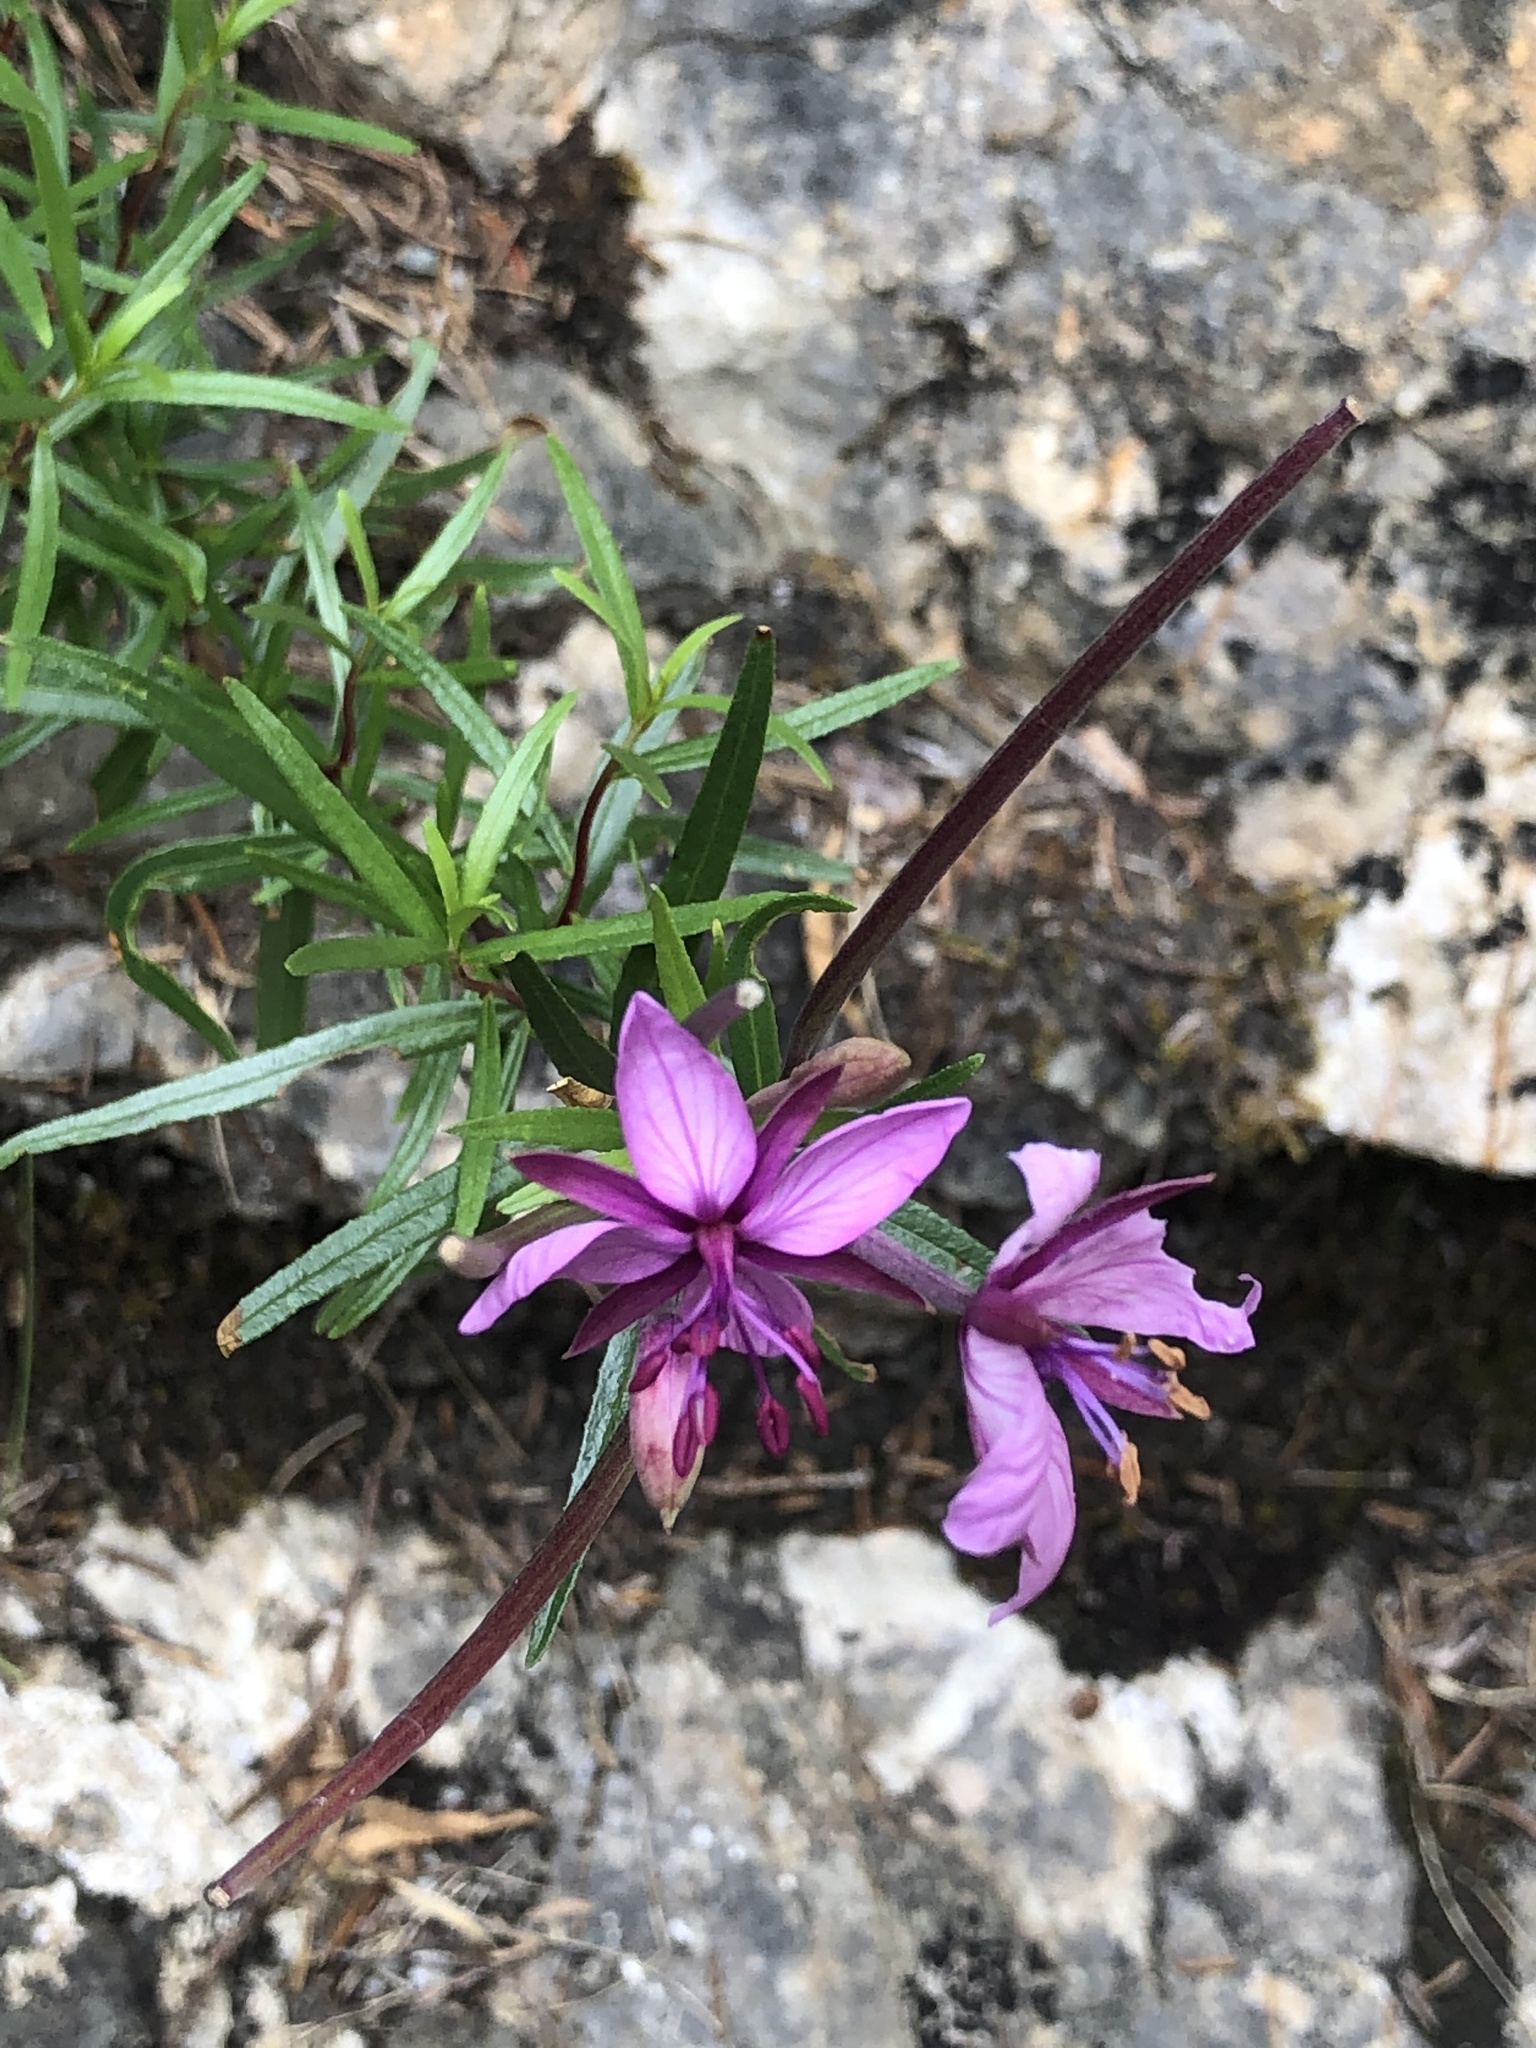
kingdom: Plantae
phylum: Tracheophyta
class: Magnoliopsida
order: Myrtales
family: Onagraceae
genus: Chamaenerion
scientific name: Chamaenerion fleischeri
